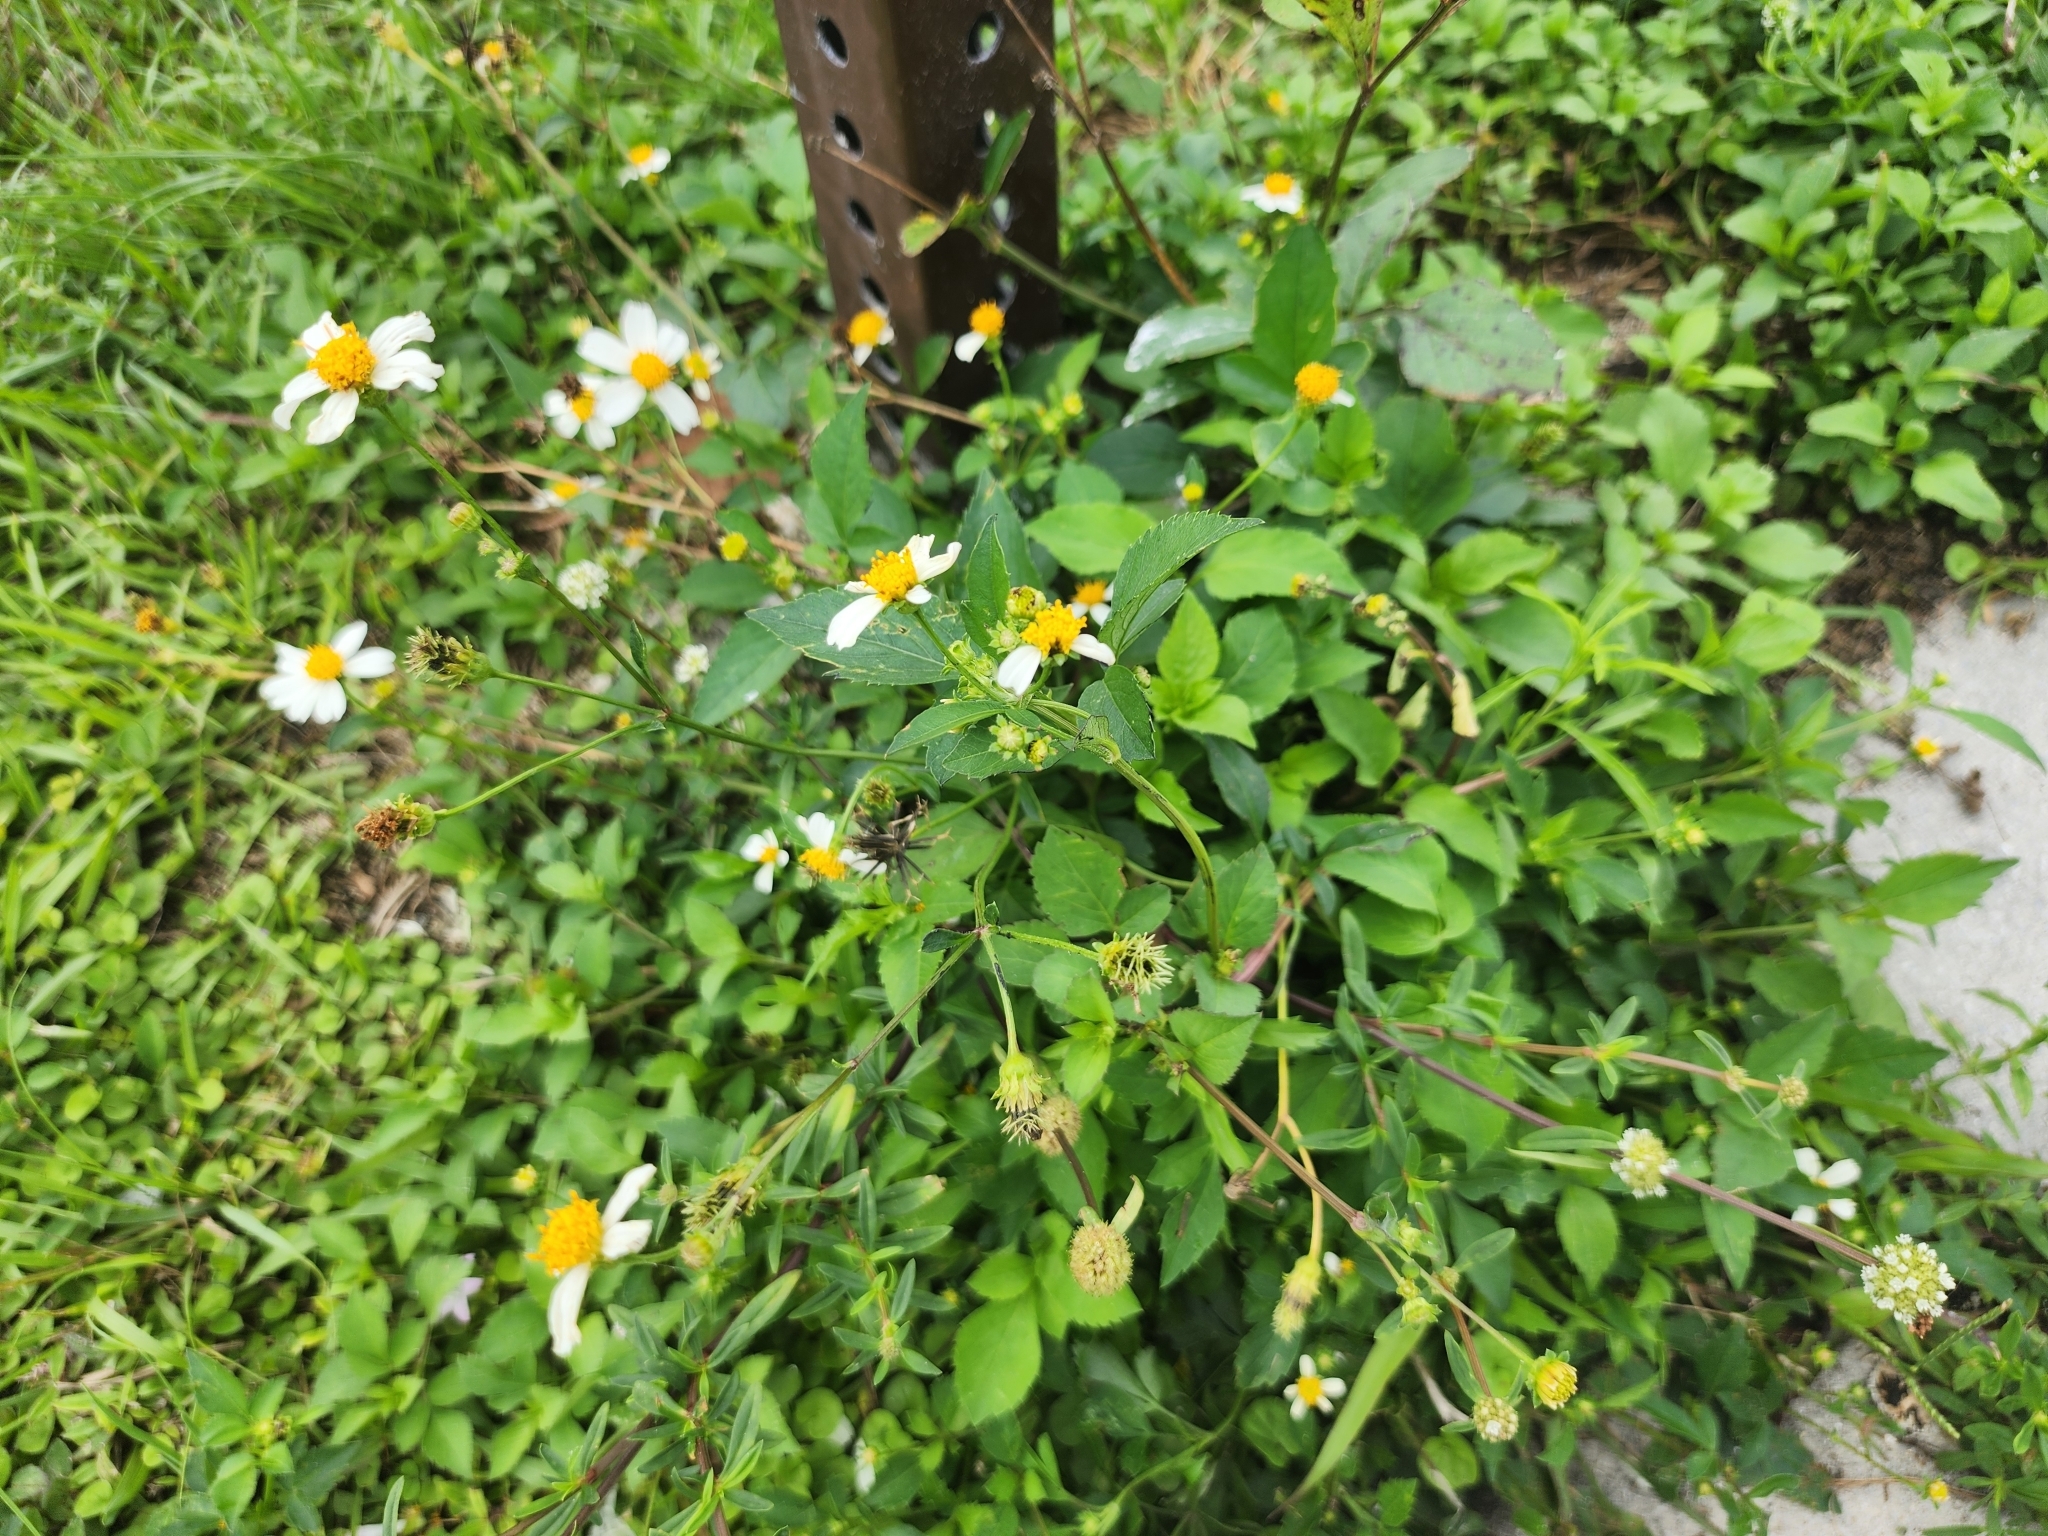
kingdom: Plantae
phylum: Tracheophyta
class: Magnoliopsida
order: Asterales
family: Asteraceae
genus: Bidens
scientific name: Bidens alba
